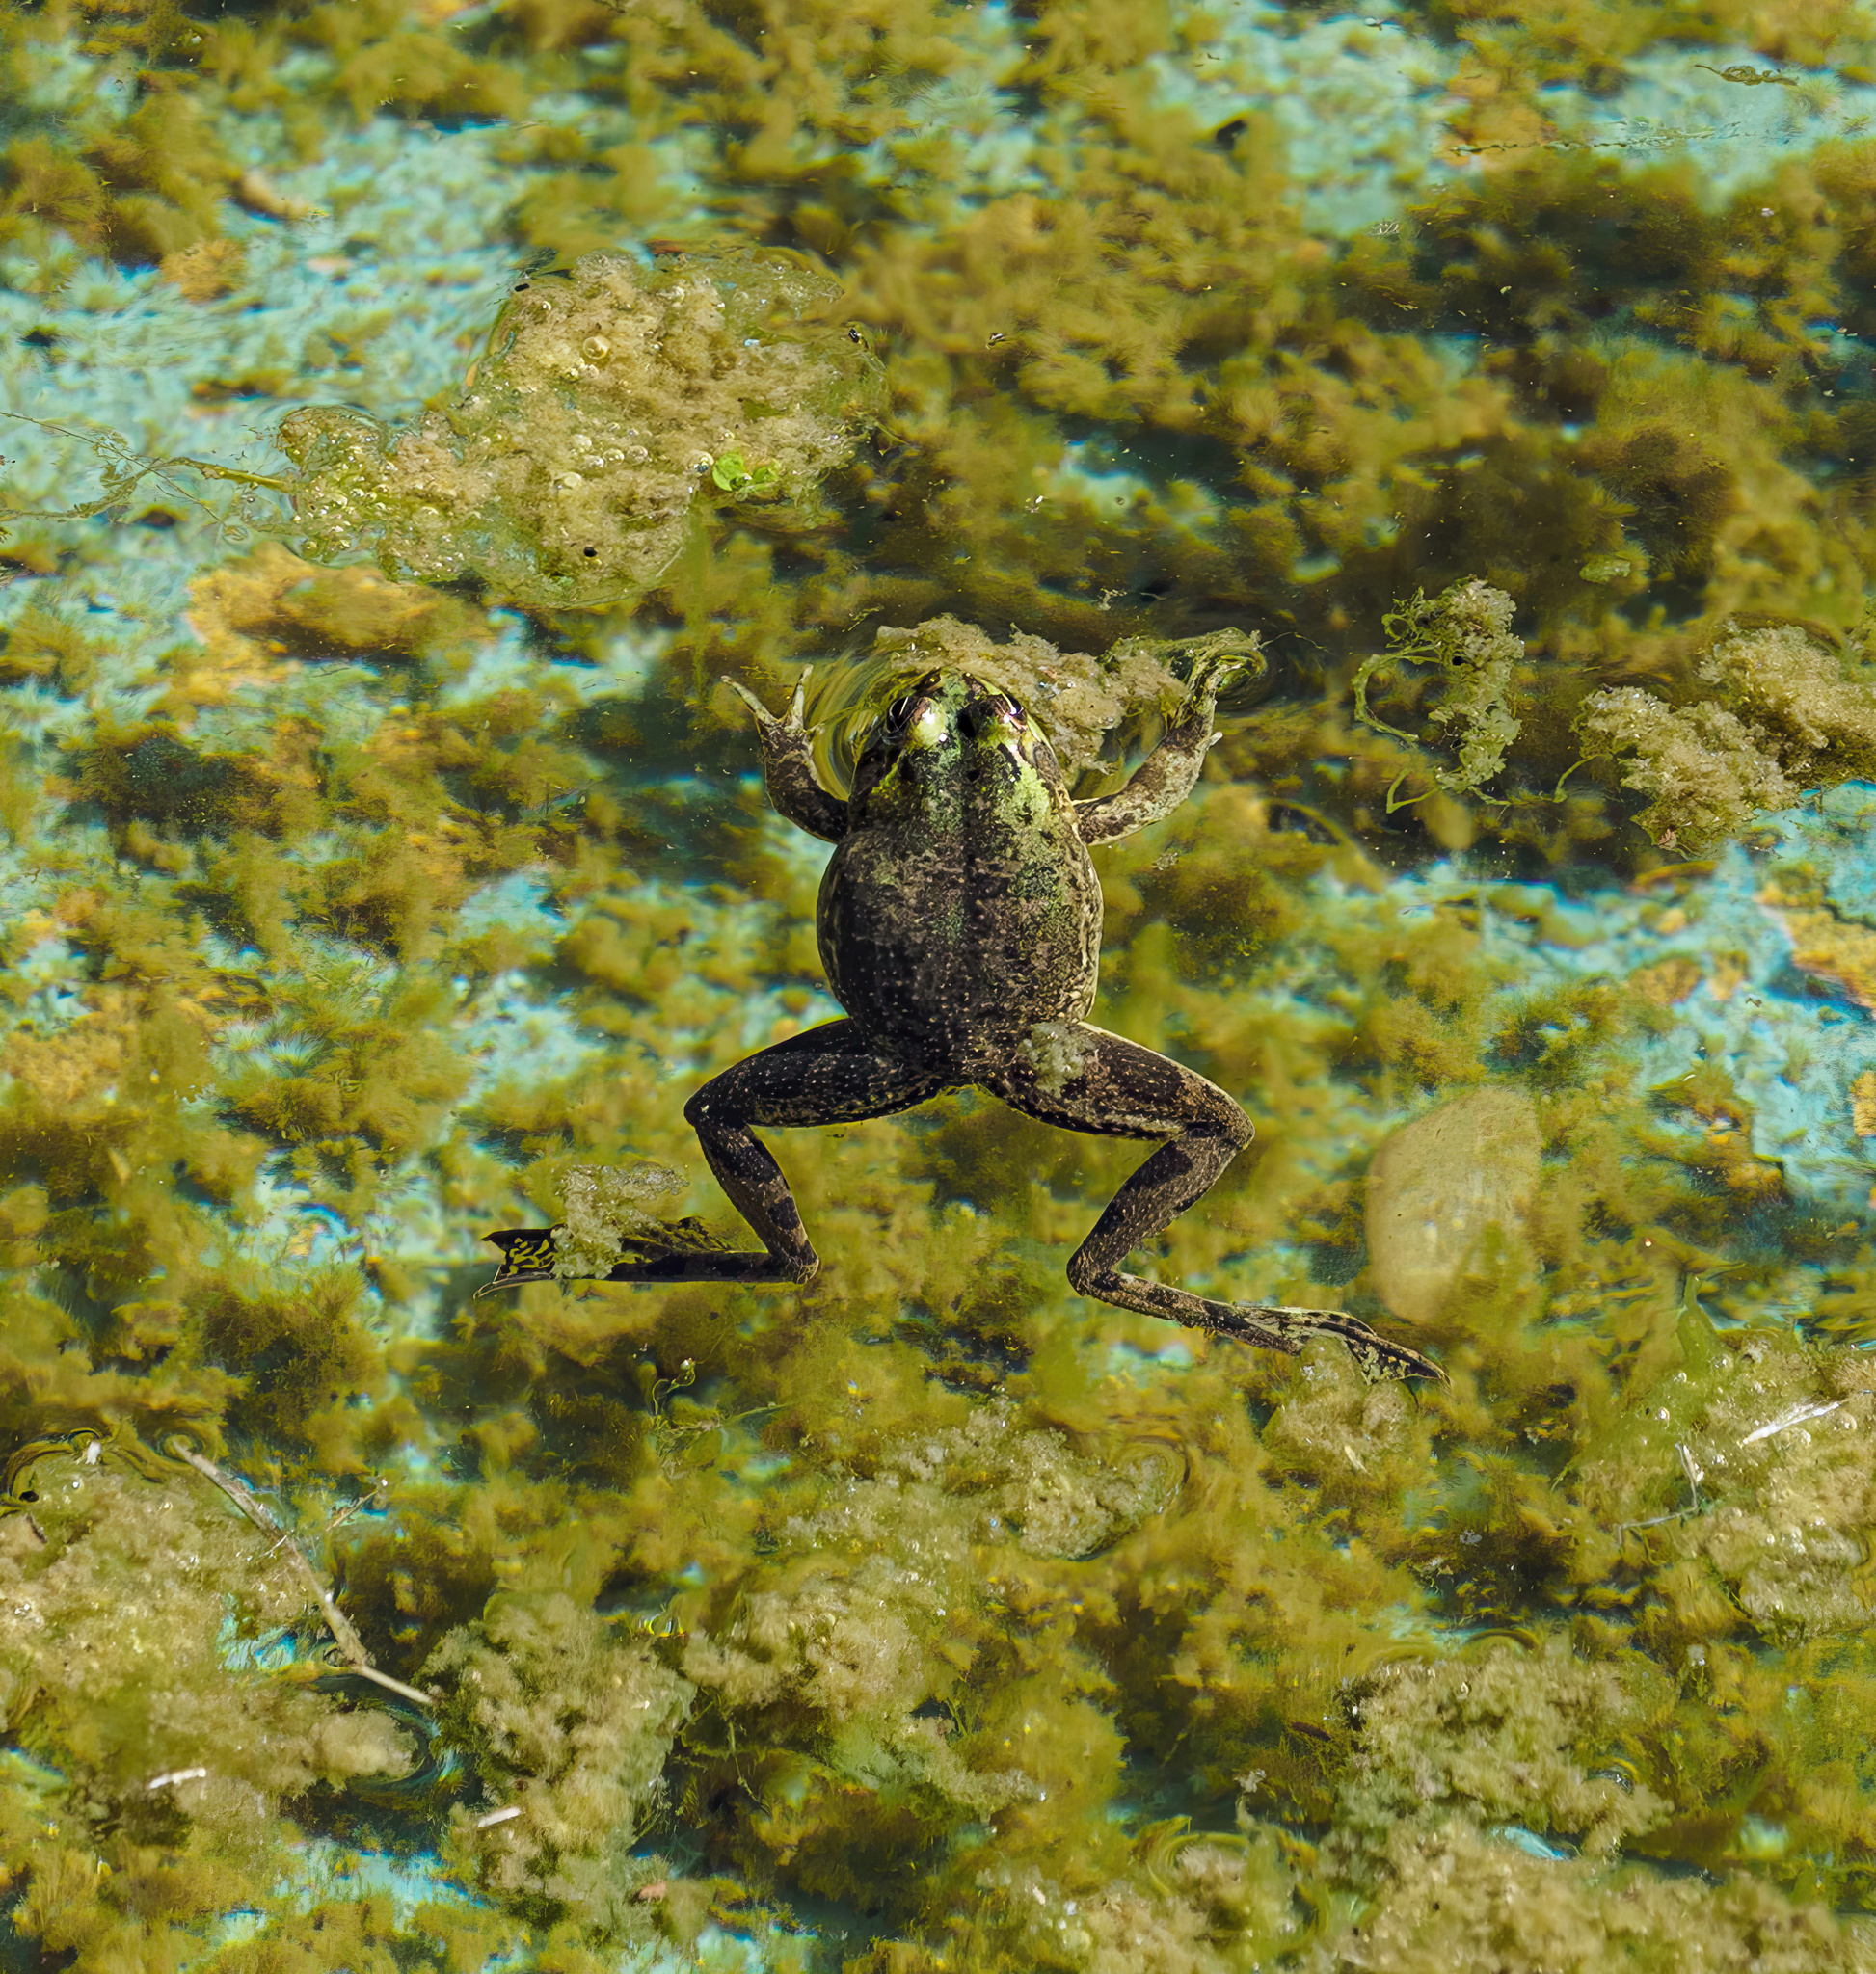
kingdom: Animalia
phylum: Chordata
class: Amphibia
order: Anura
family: Hylidae
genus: Pseudis
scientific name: Pseudis minuta
